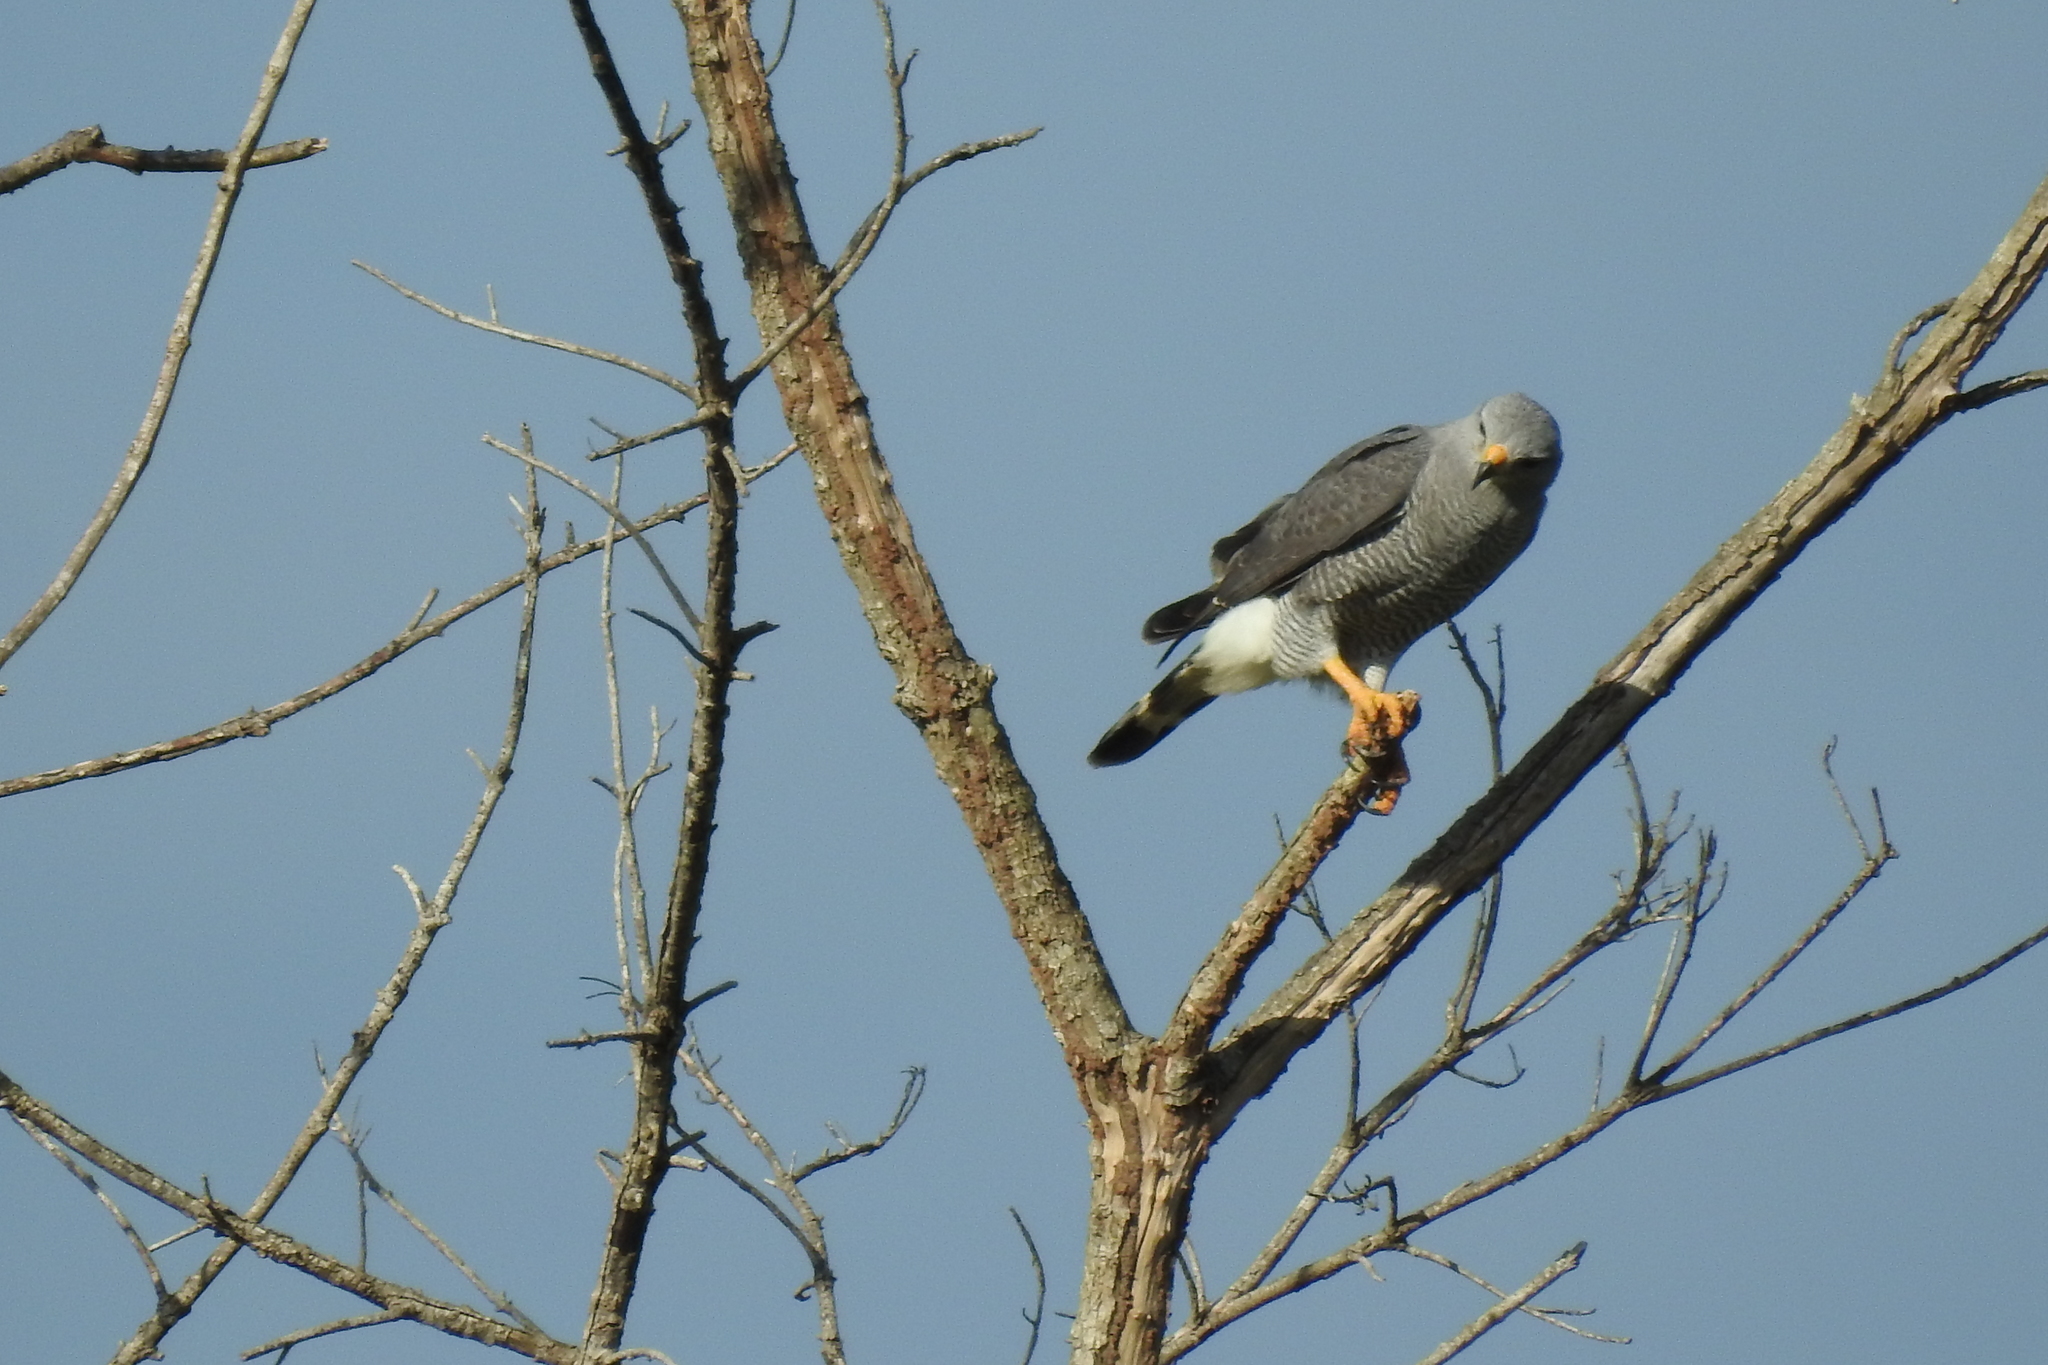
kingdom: Animalia
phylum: Chordata
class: Aves
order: Accipitriformes
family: Accipitridae
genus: Buteo
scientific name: Buteo nitidus
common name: Grey-lined hawk
